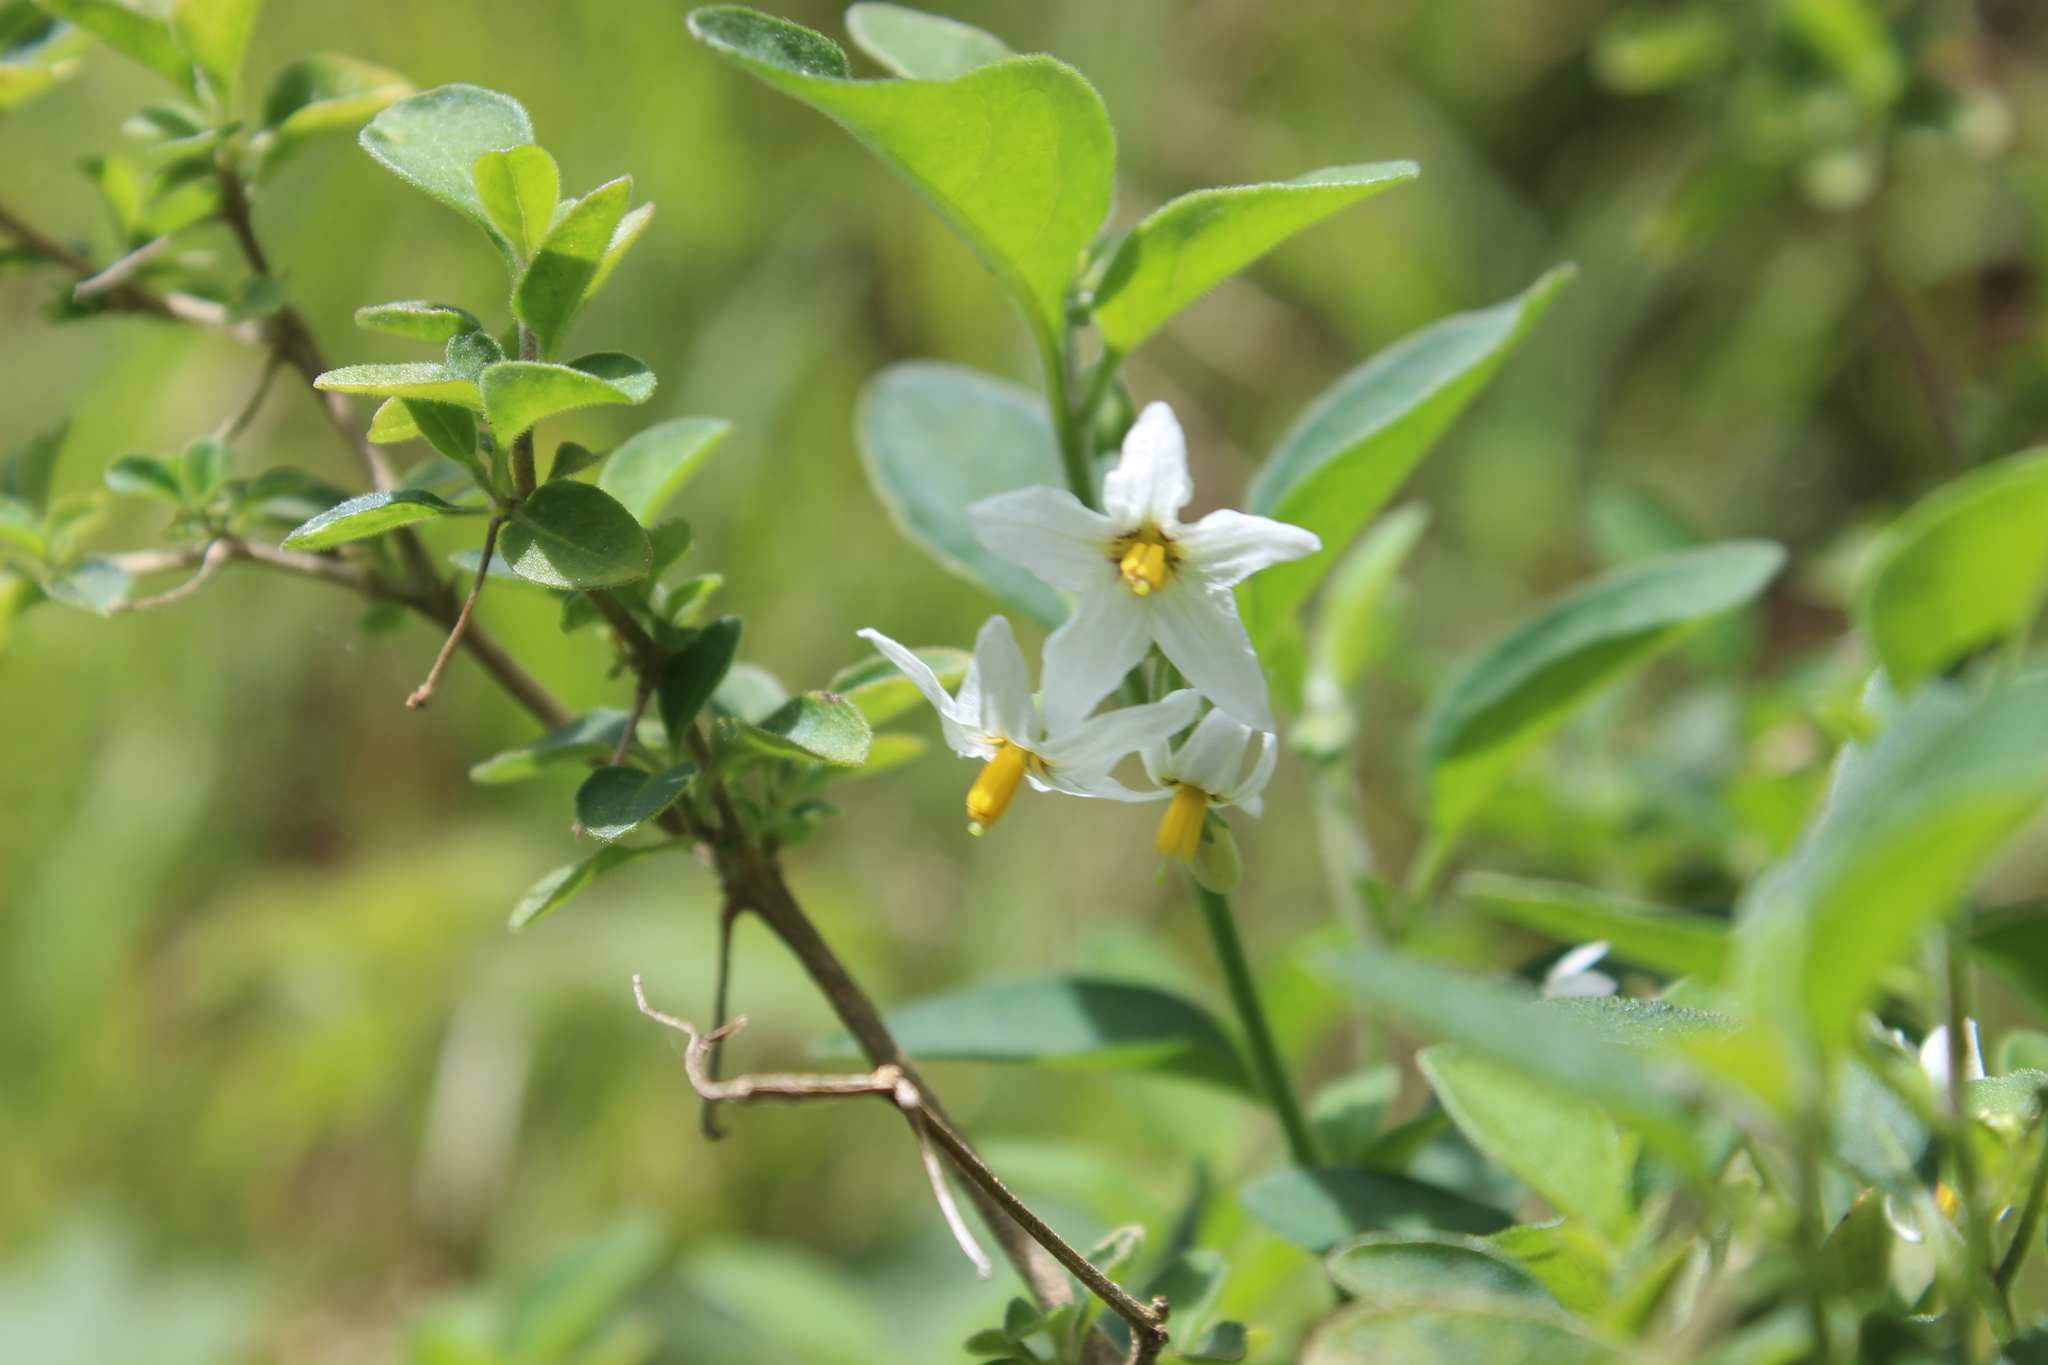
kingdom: Plantae
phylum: Tracheophyta
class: Magnoliopsida
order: Solanales
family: Solanaceae
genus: Solanum
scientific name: Solanum chenopodioides
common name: Tall nightshade
